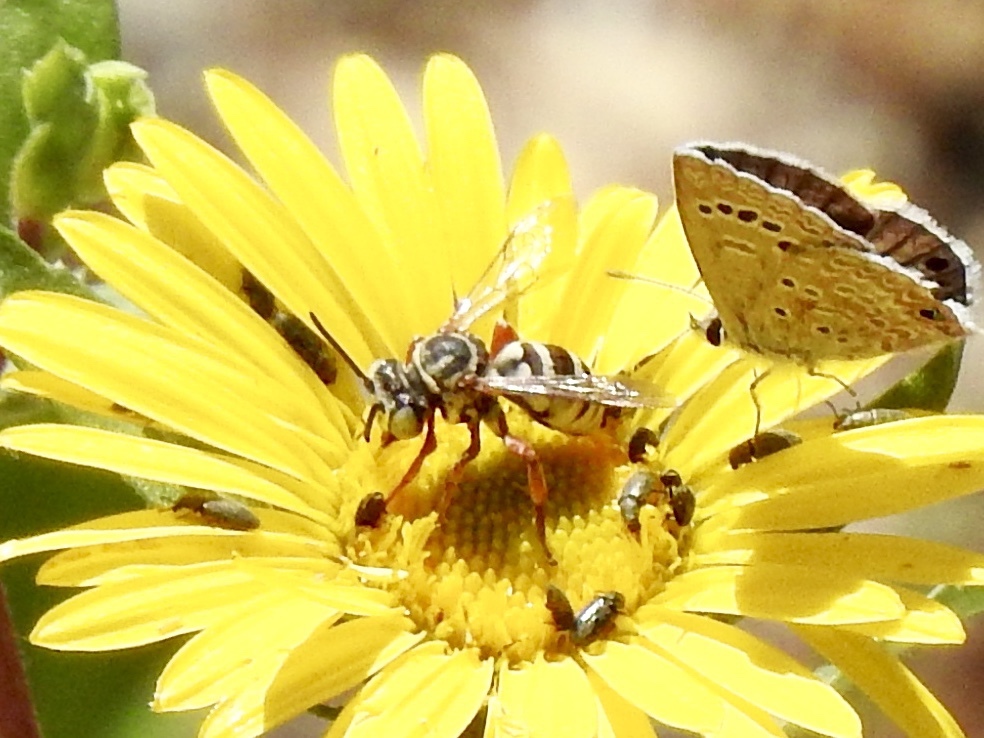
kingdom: Animalia
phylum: Arthropoda
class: Insecta
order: Hymenoptera
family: Apidae
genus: Triepeolus
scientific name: Triepeolus
